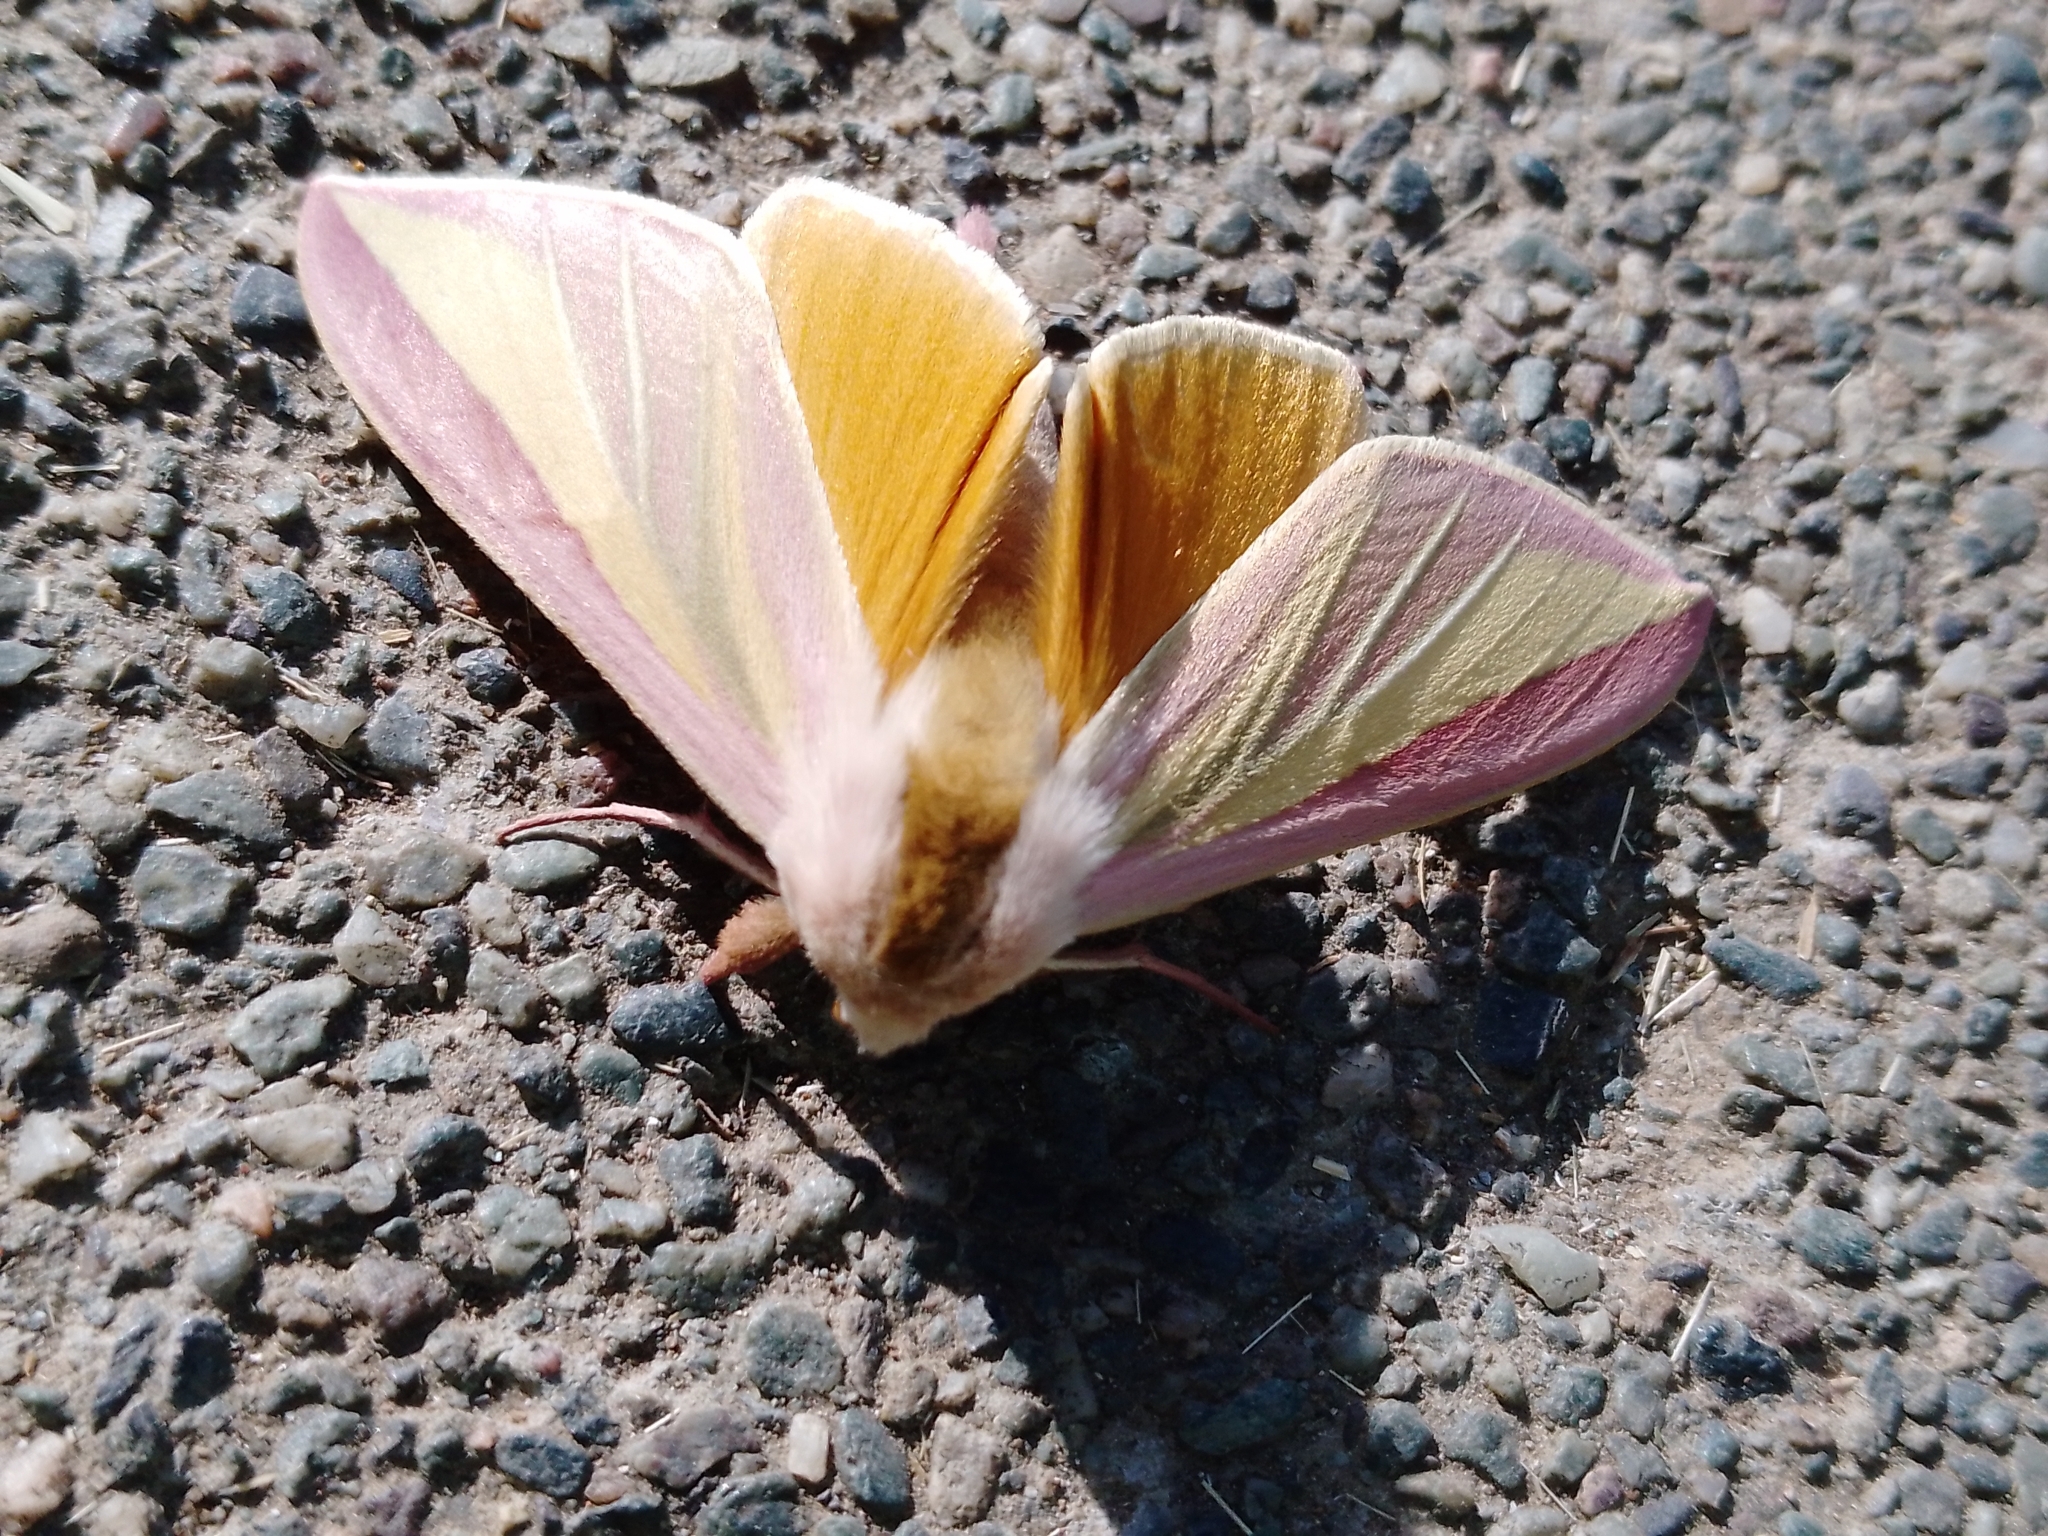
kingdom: Animalia
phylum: Arthropoda
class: Insecta
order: Lepidoptera
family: Sphingidae
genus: Leucophlebia
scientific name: Leucophlebia lineata
